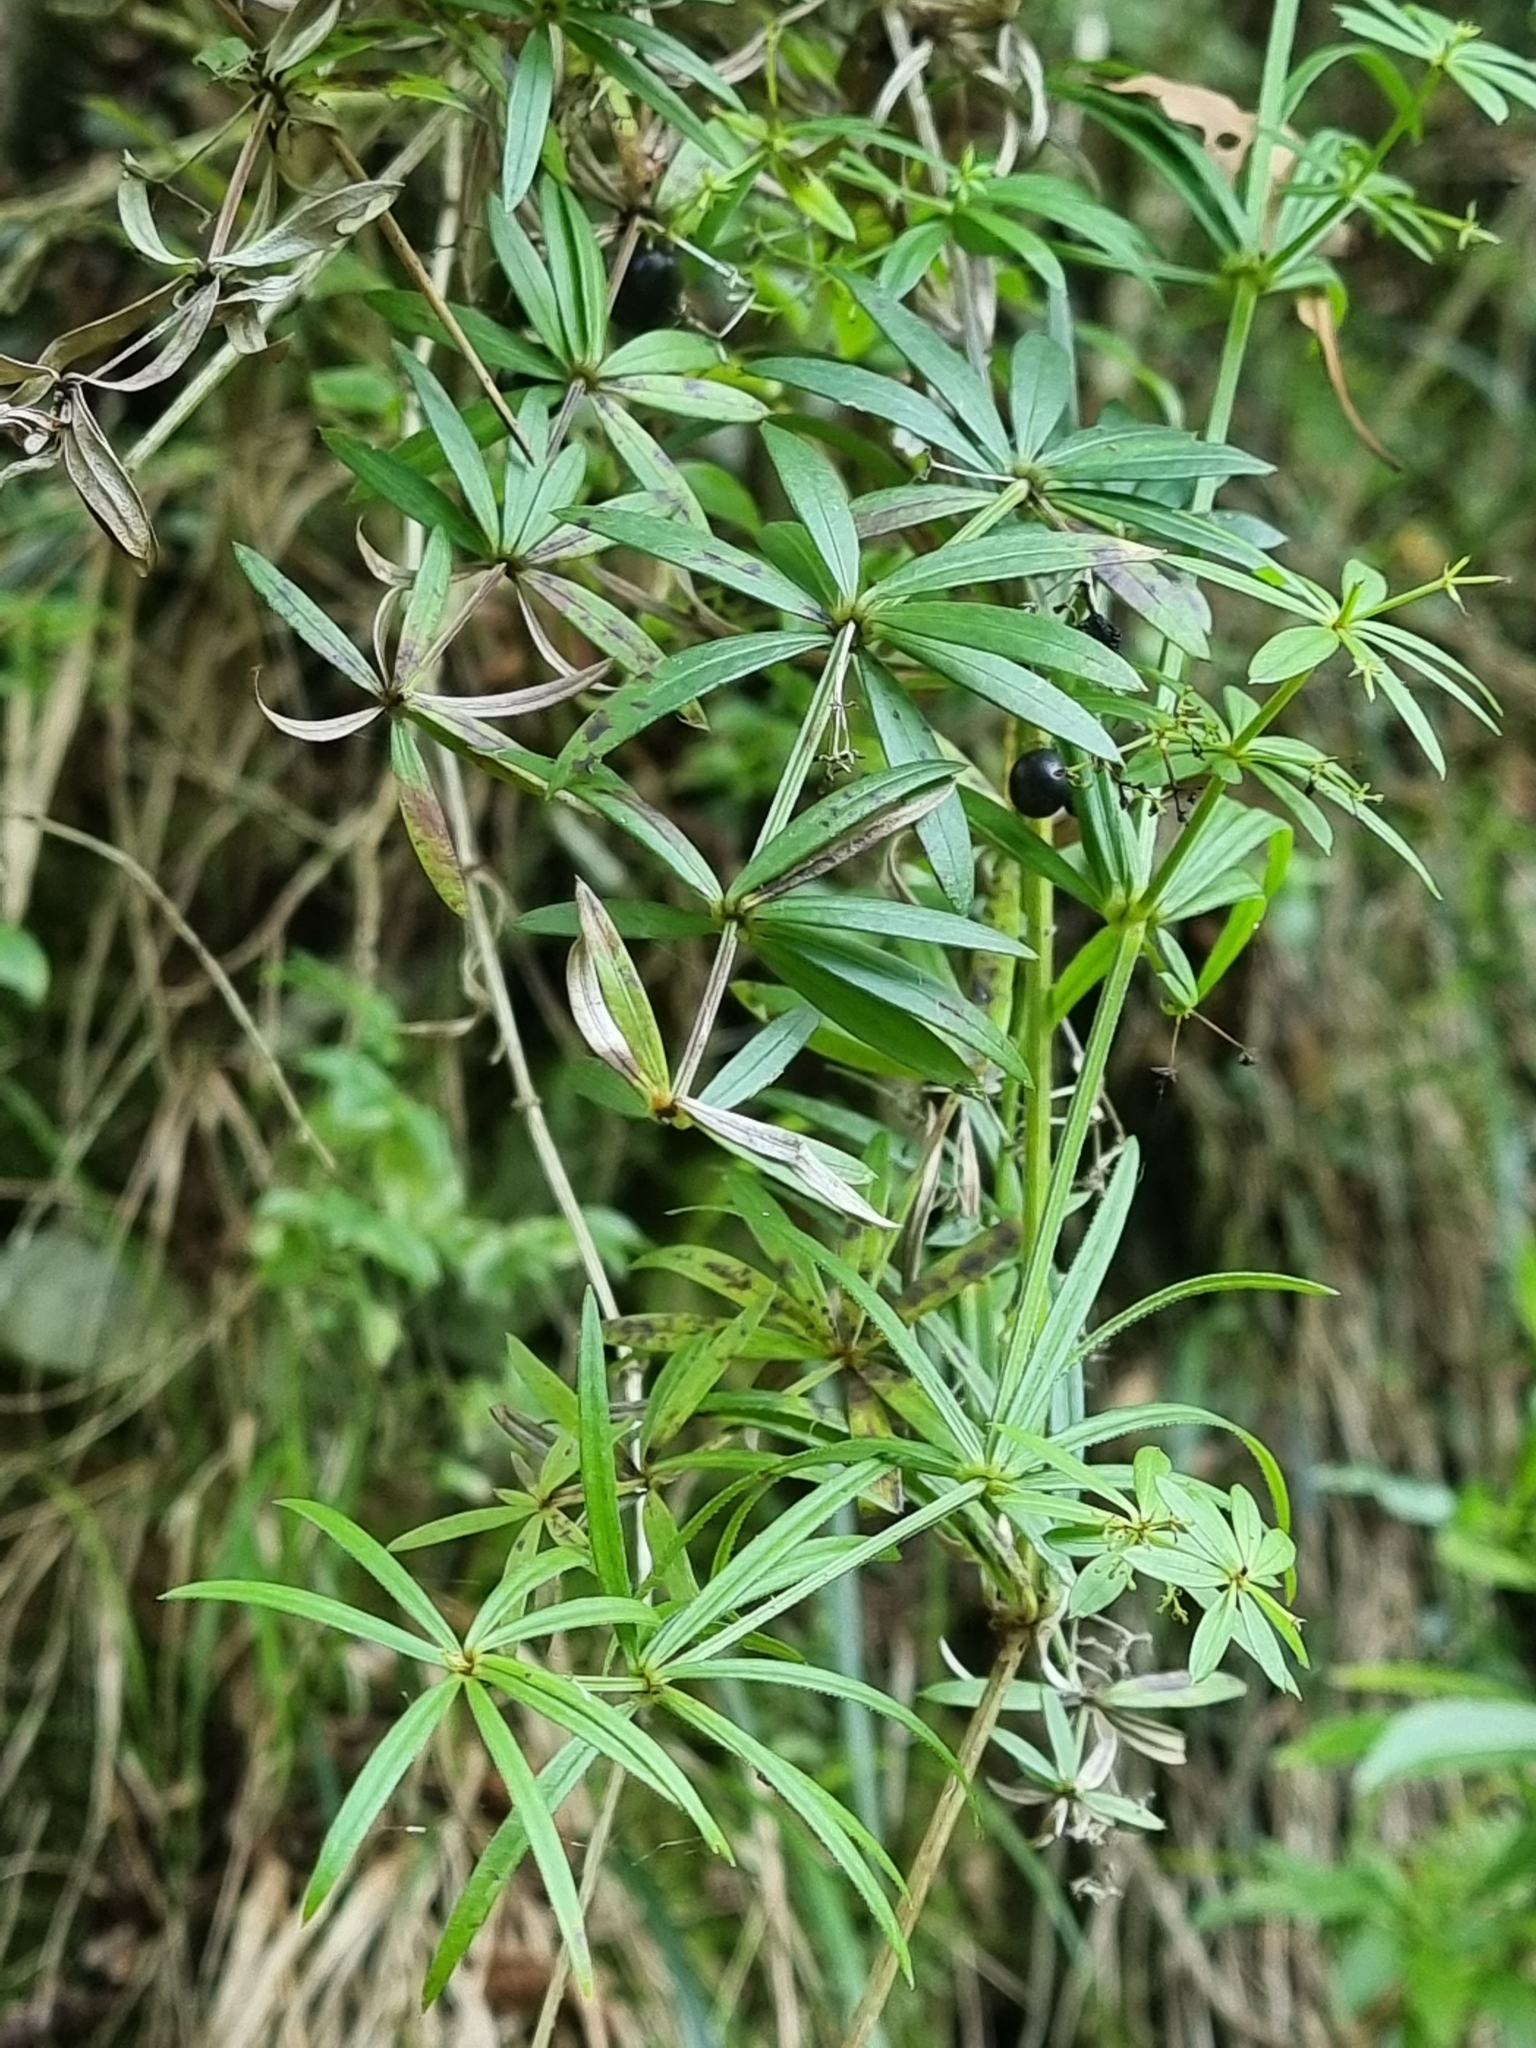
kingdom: Plantae
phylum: Tracheophyta
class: Magnoliopsida
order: Gentianales
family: Rubiaceae
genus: Rubia
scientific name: Rubia occidens
